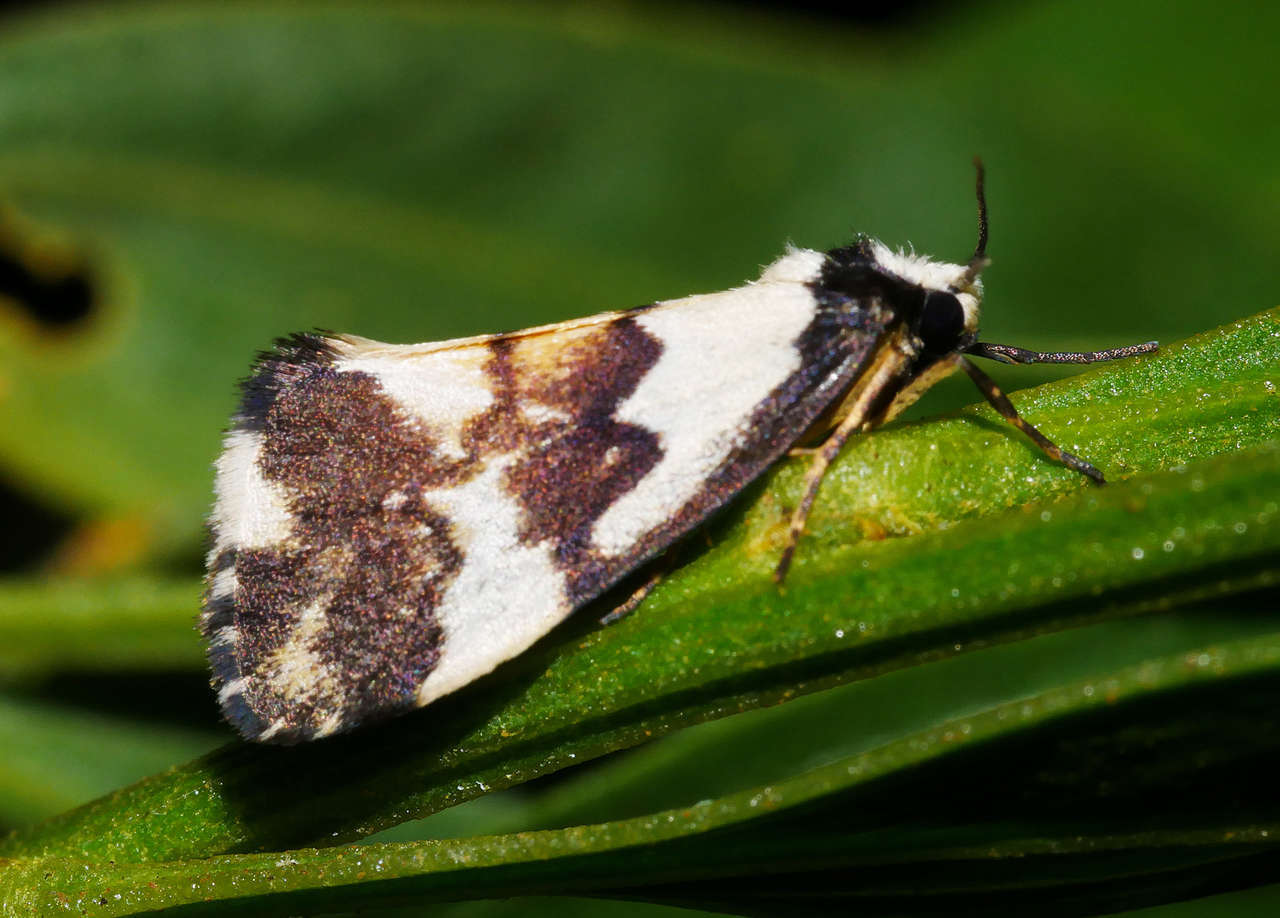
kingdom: Animalia
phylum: Arthropoda
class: Insecta
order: Lepidoptera
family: Erebidae
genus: Philenora
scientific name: Philenora irregularis
